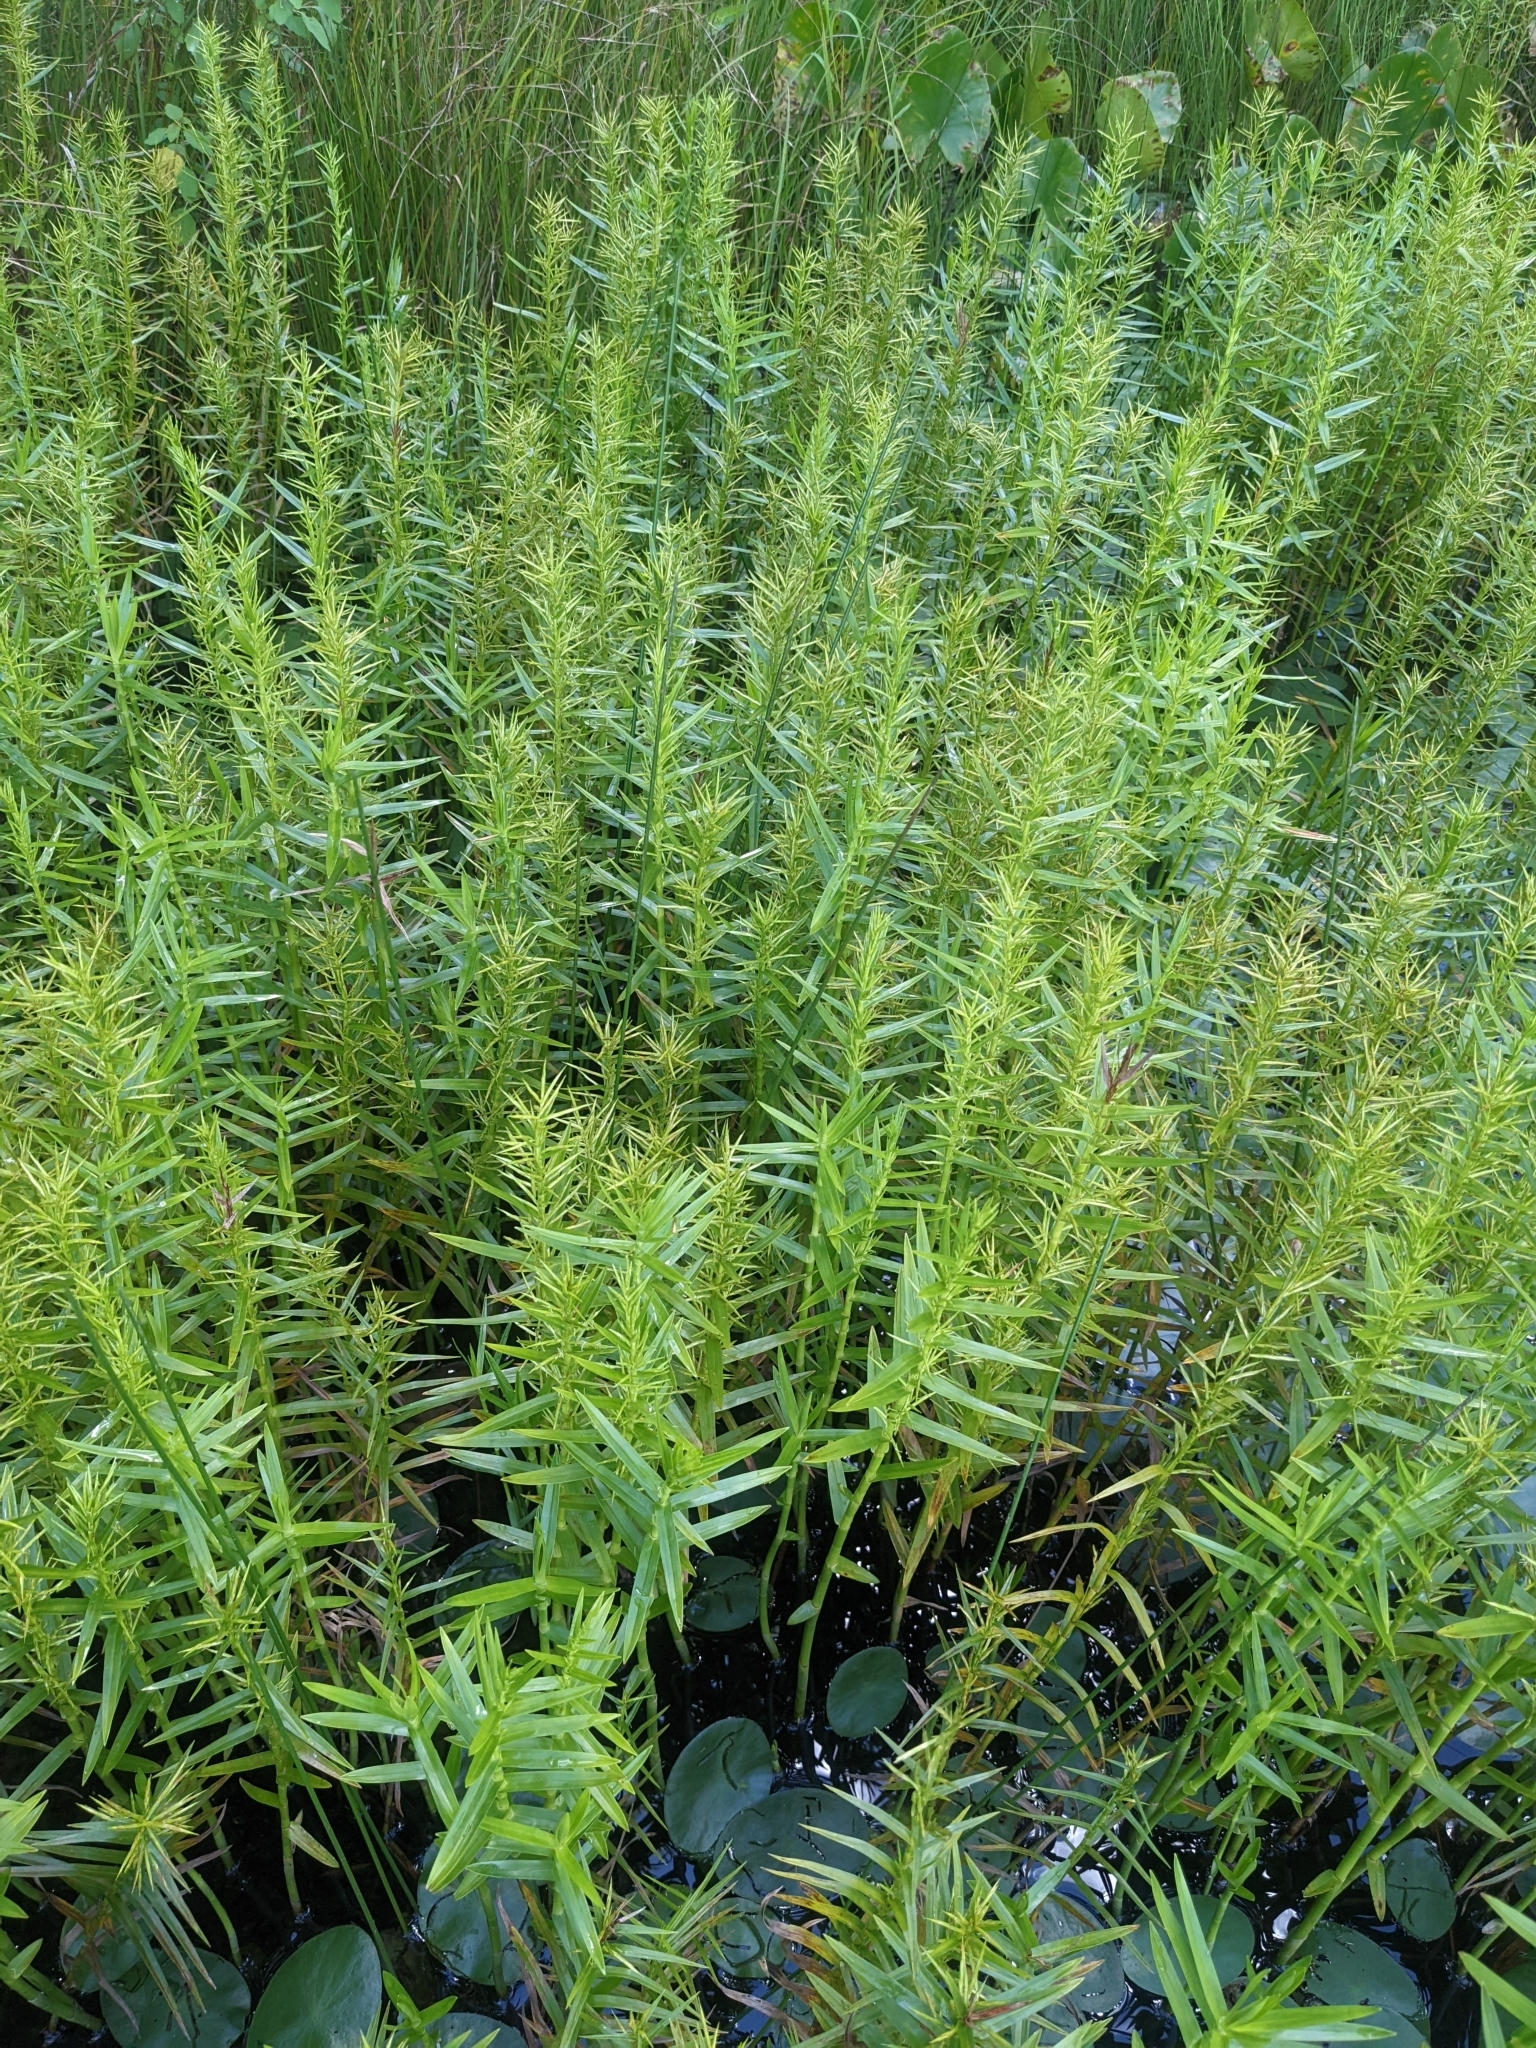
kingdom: Plantae
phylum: Tracheophyta
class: Liliopsida
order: Poales
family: Cyperaceae
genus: Dulichium
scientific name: Dulichium arundinaceum
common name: Three-way sedge
